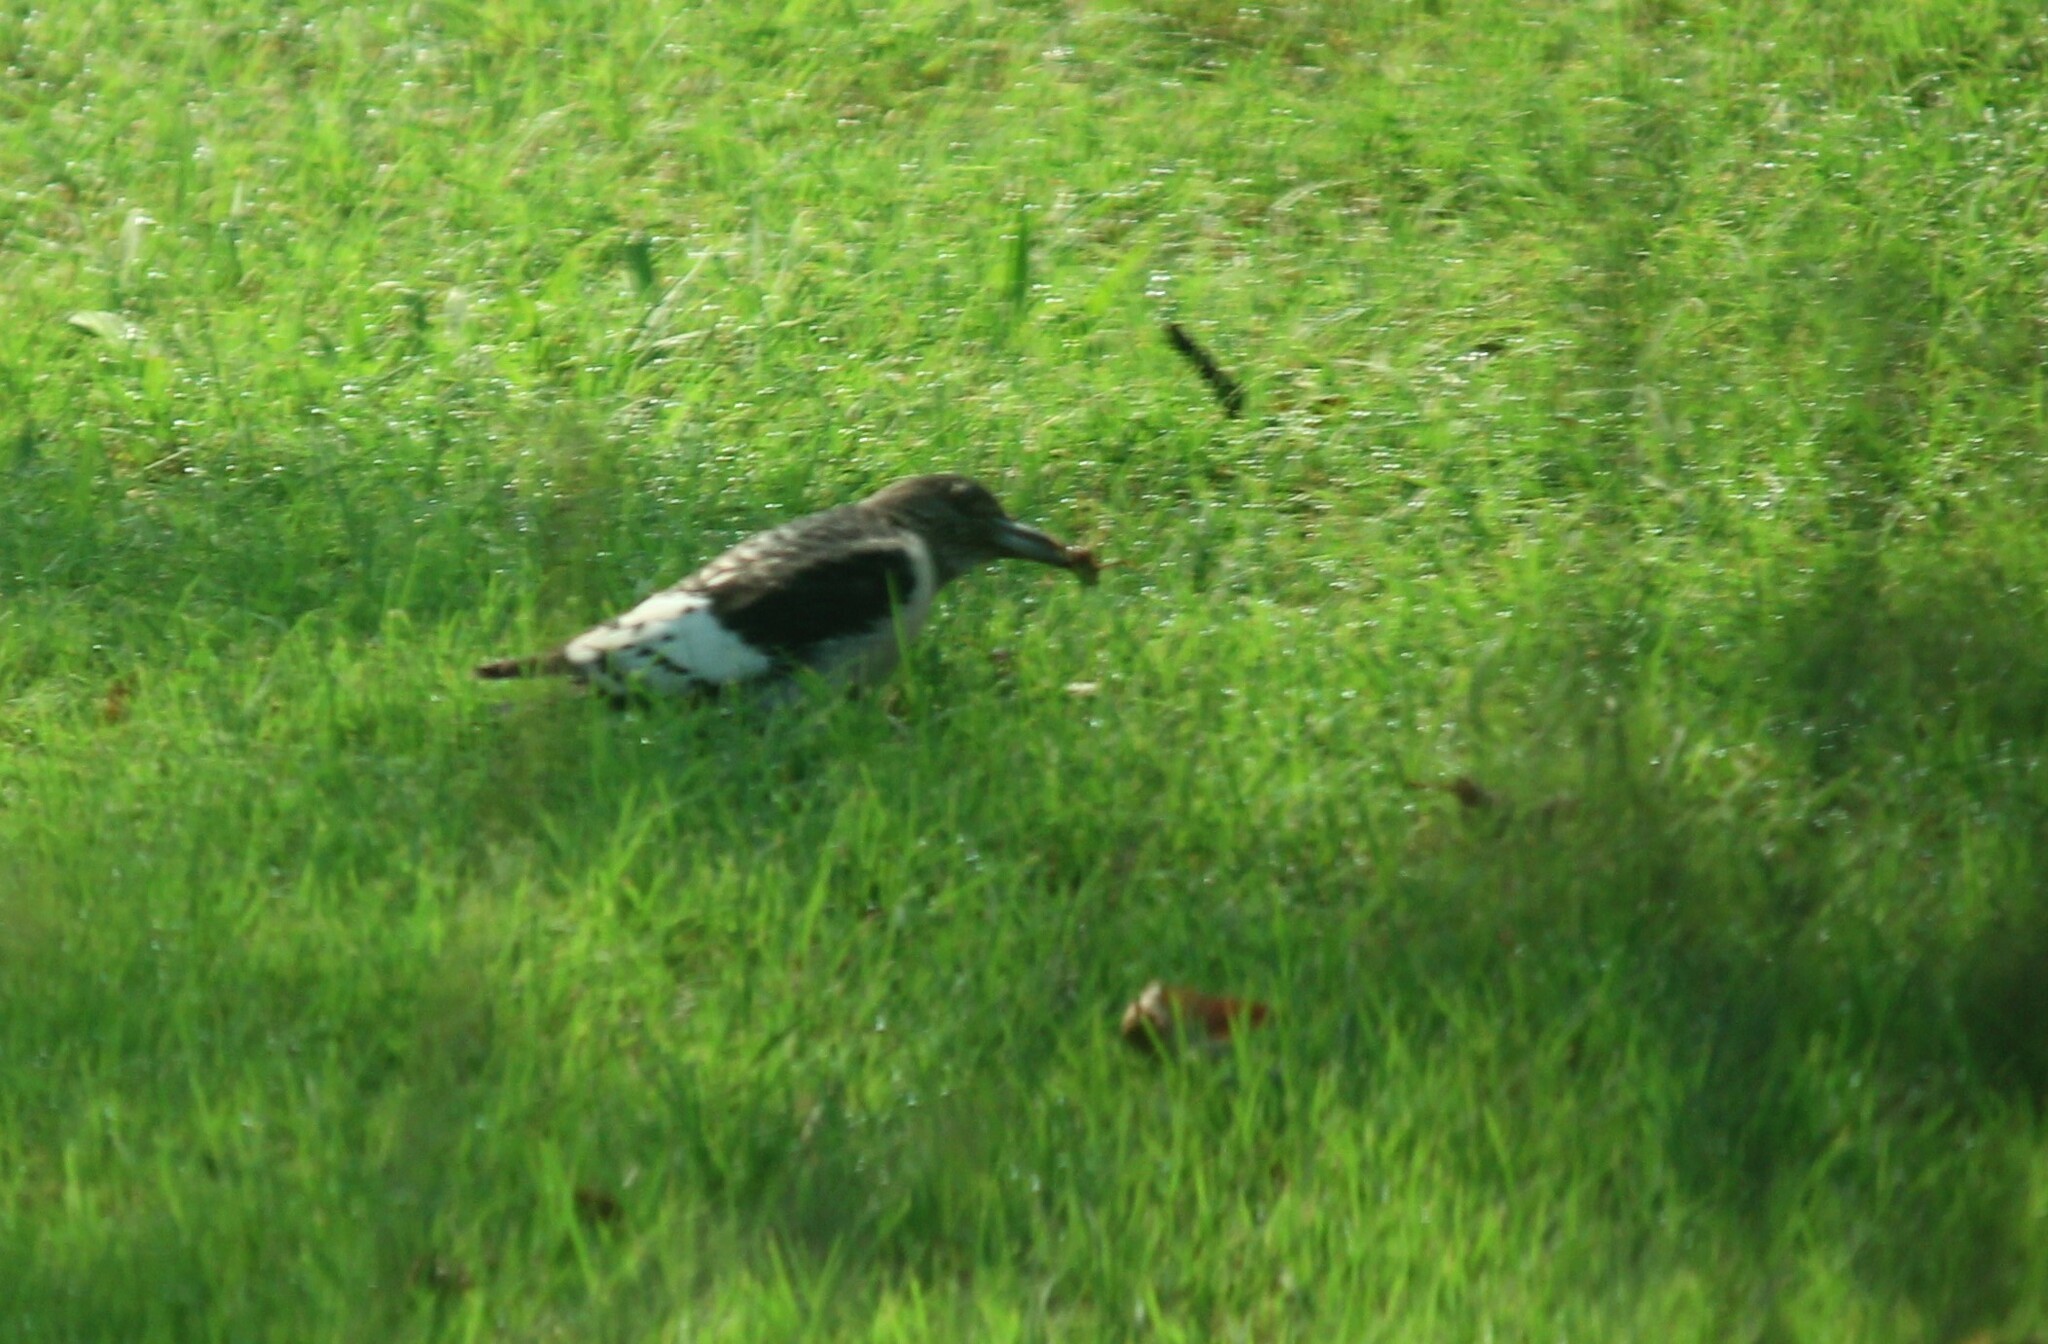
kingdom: Animalia
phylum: Chordata
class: Aves
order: Piciformes
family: Picidae
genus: Melanerpes
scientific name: Melanerpes erythrocephalus
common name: Red-headed woodpecker
